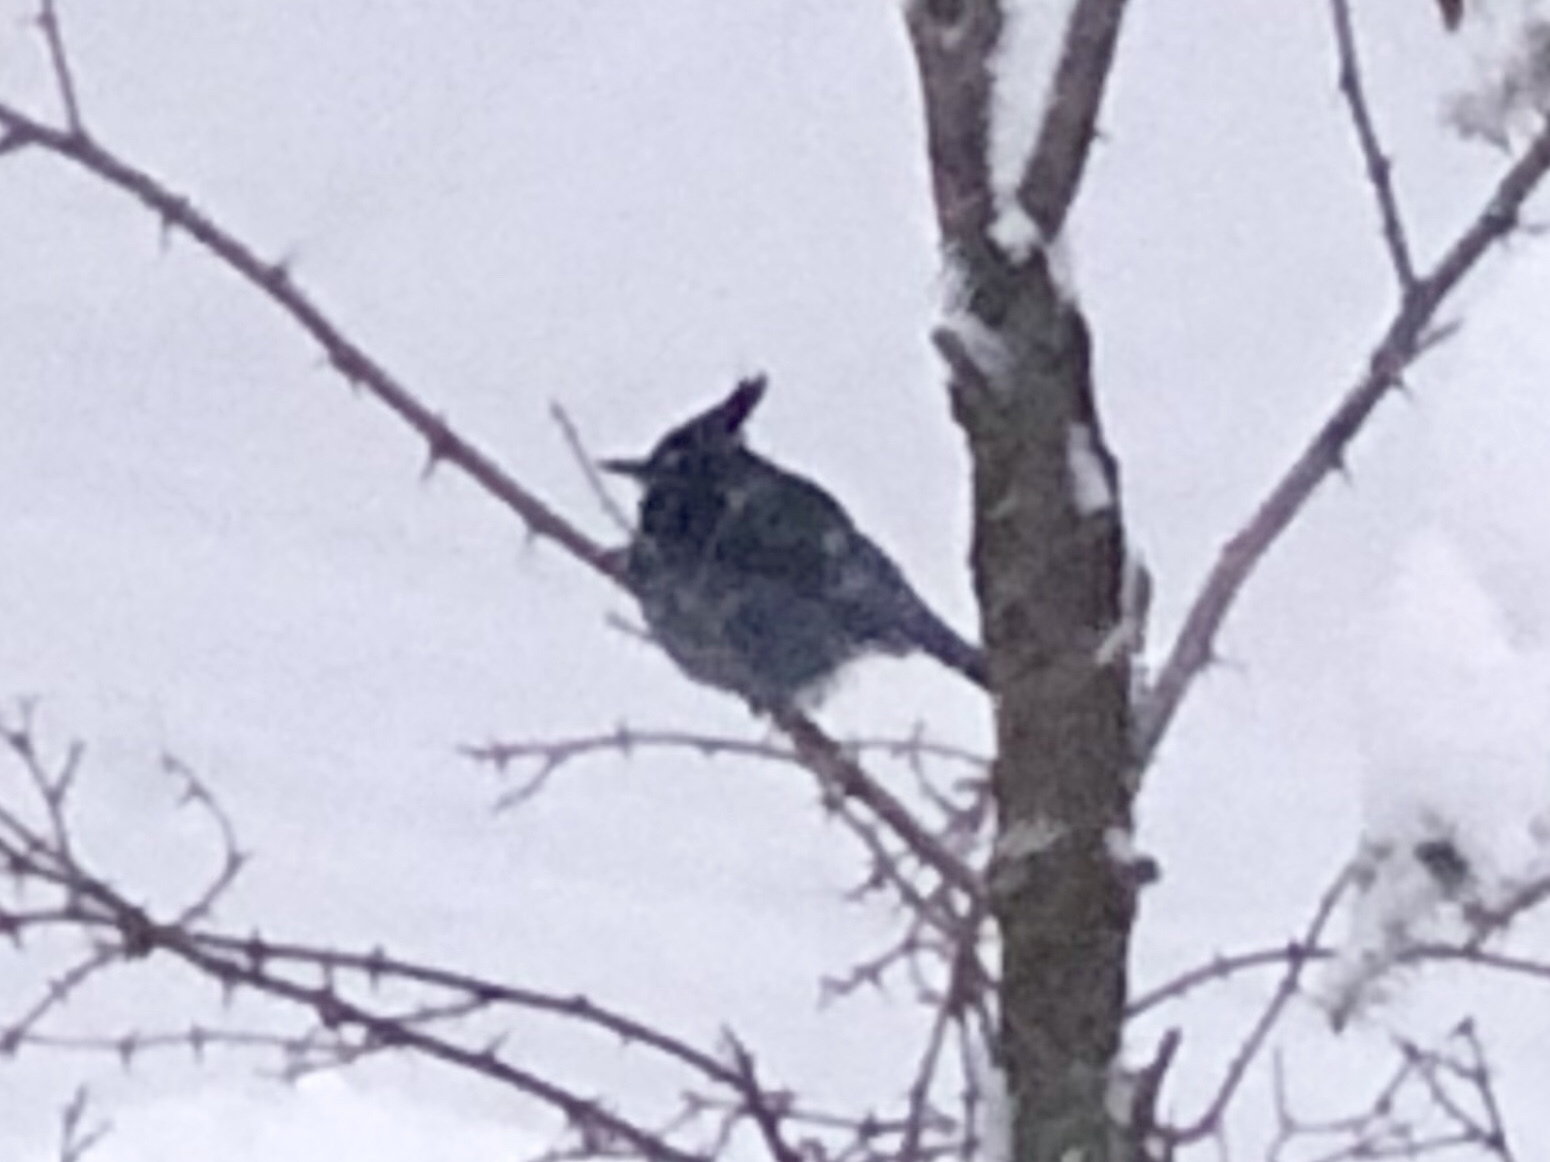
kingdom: Animalia
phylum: Chordata
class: Aves
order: Passeriformes
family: Corvidae
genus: Cyanocitta
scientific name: Cyanocitta stelleri
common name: Steller's jay
